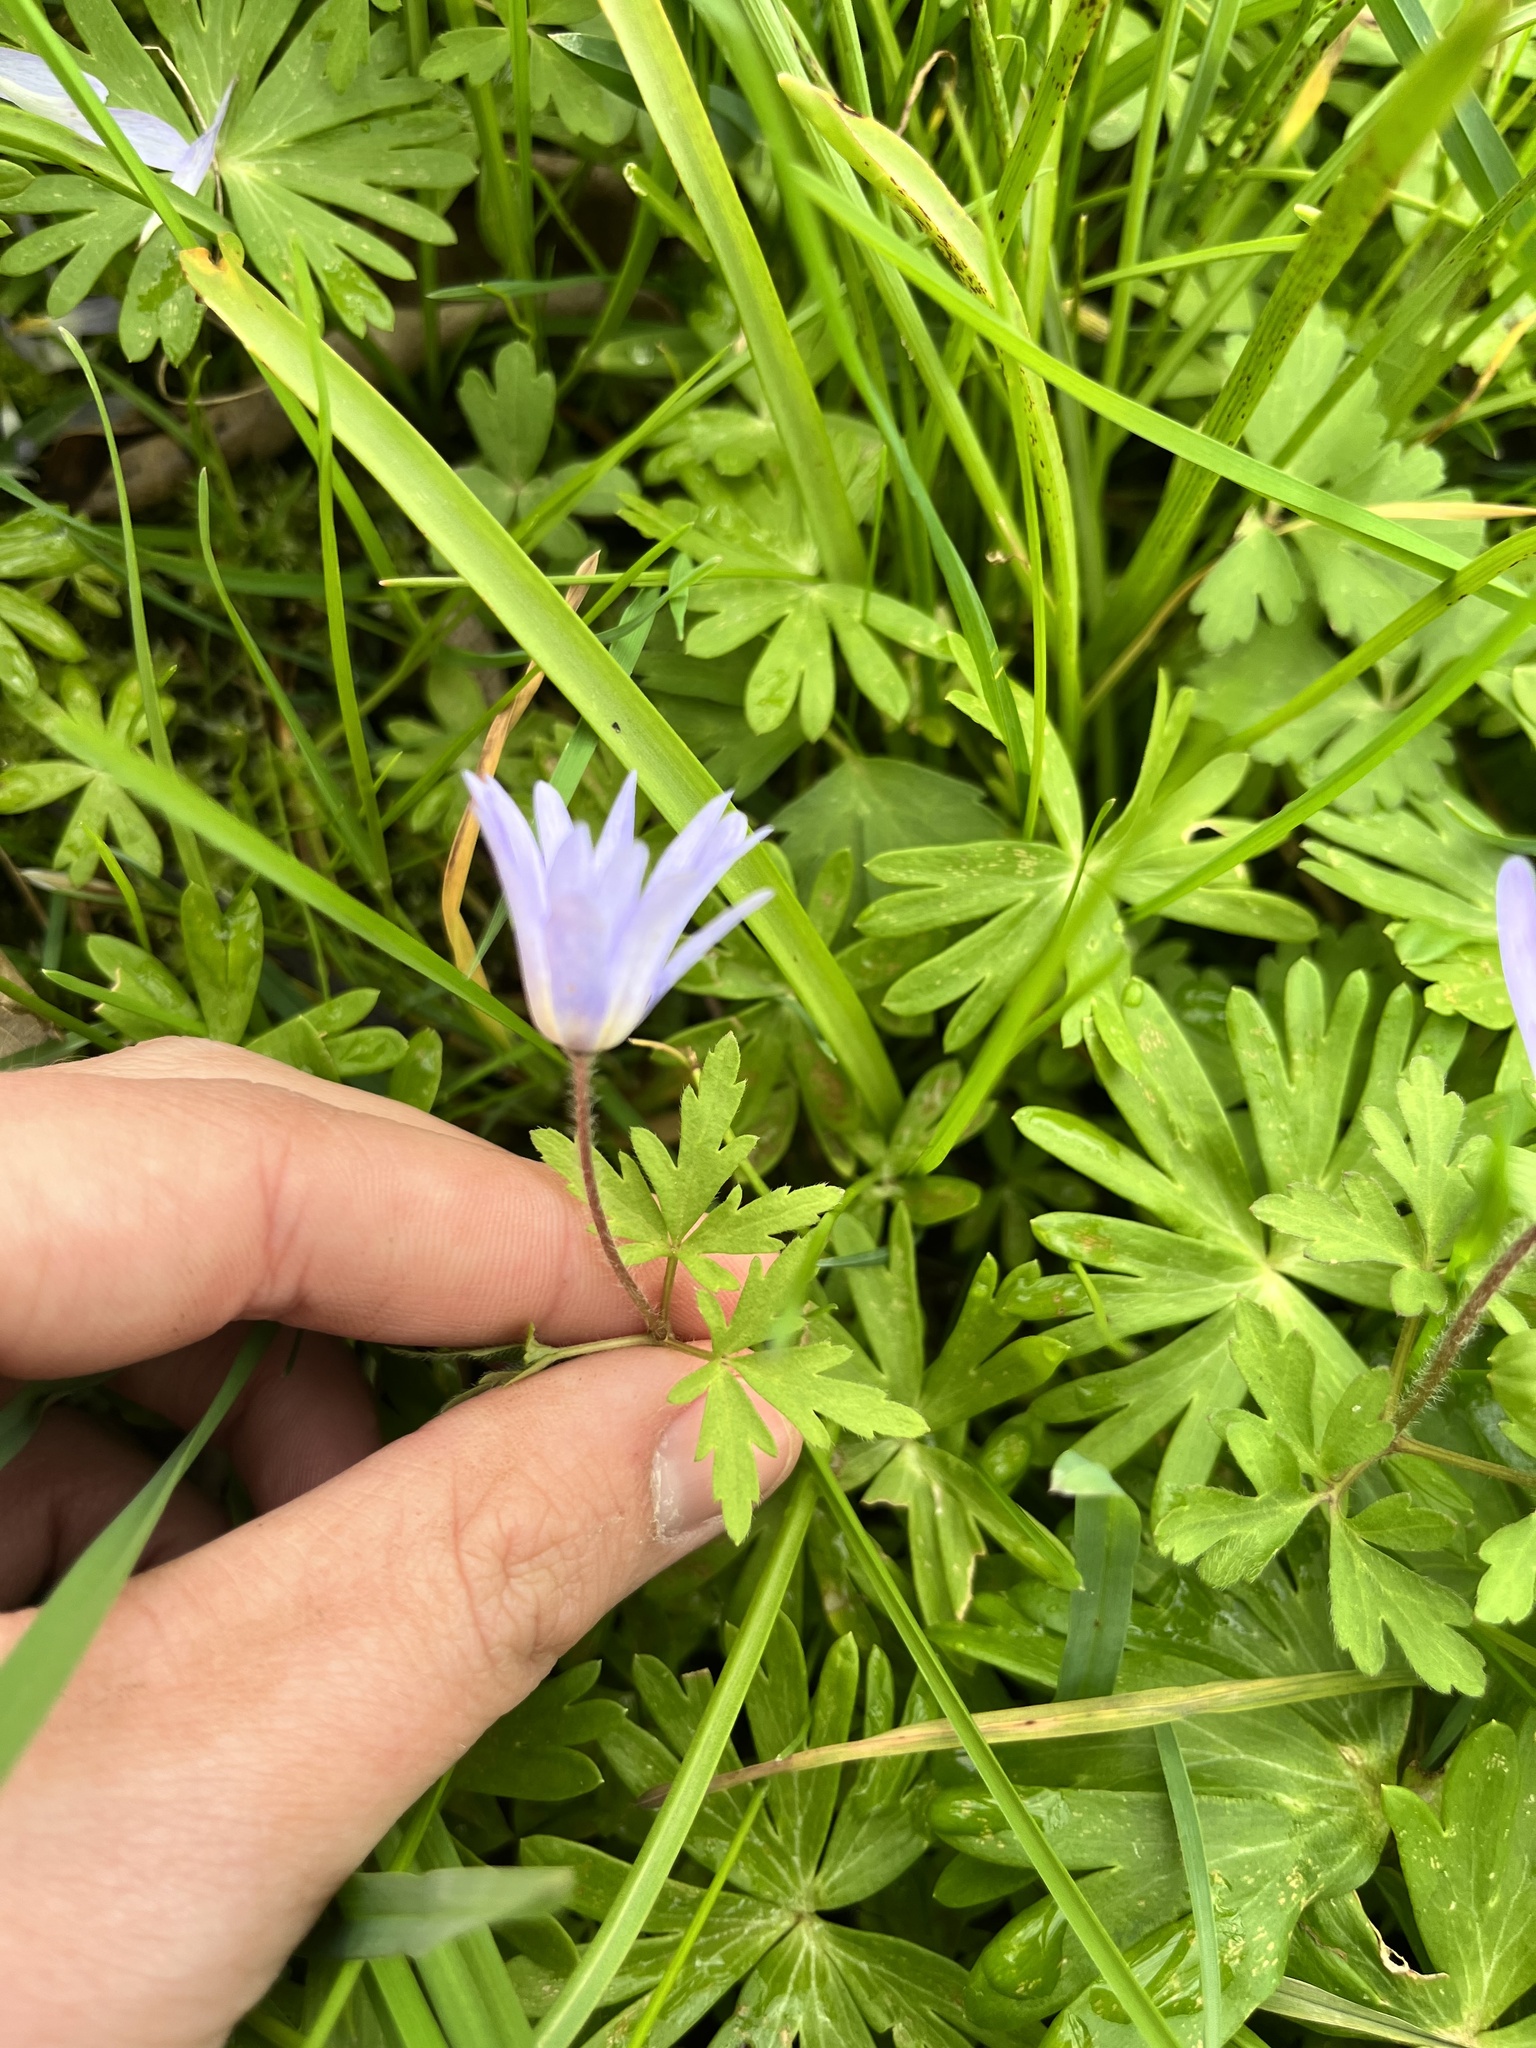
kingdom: Plantae
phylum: Tracheophyta
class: Magnoliopsida
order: Ranunculales
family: Ranunculaceae
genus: Anemone
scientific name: Anemone blanda
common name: Balkan anemone
